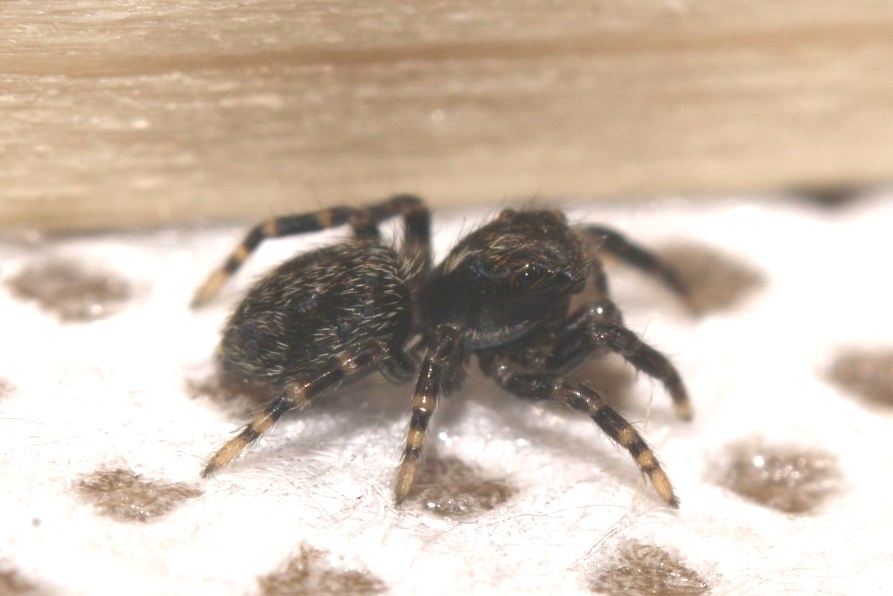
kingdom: Animalia
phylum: Arthropoda
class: Arachnida
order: Araneae
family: Salticidae
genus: Pseudeuophrys
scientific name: Pseudeuophrys lanigera
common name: Jumping spider
